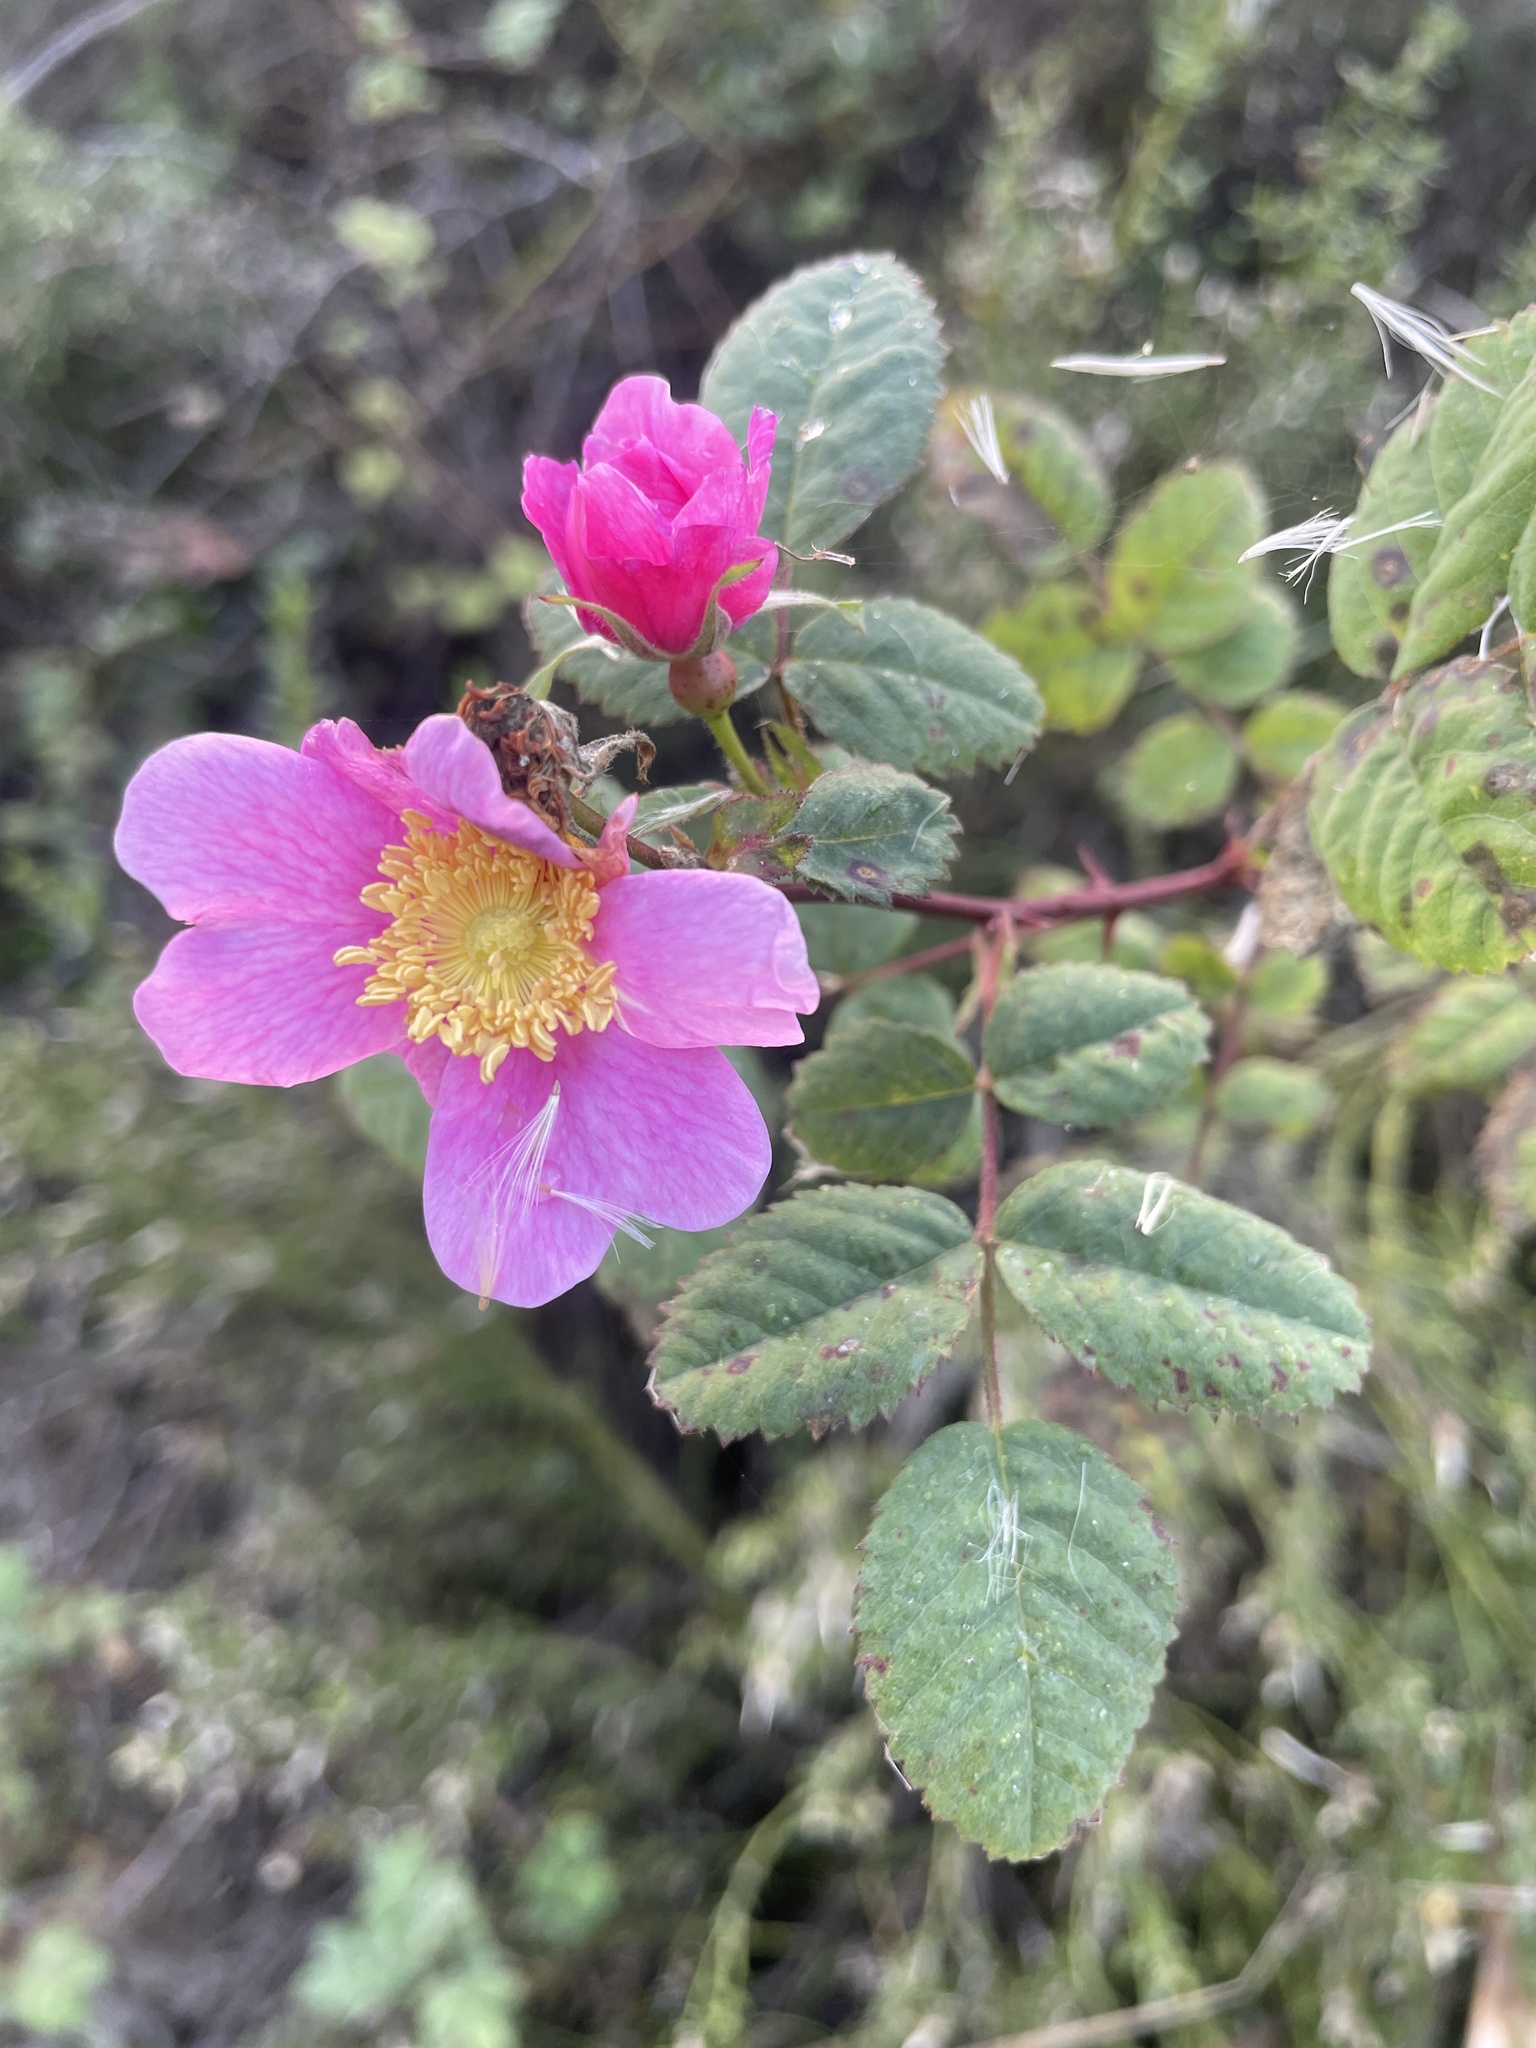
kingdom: Plantae
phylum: Tracheophyta
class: Magnoliopsida
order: Rosales
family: Rosaceae
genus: Rosa
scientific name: Rosa californica
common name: California rose
